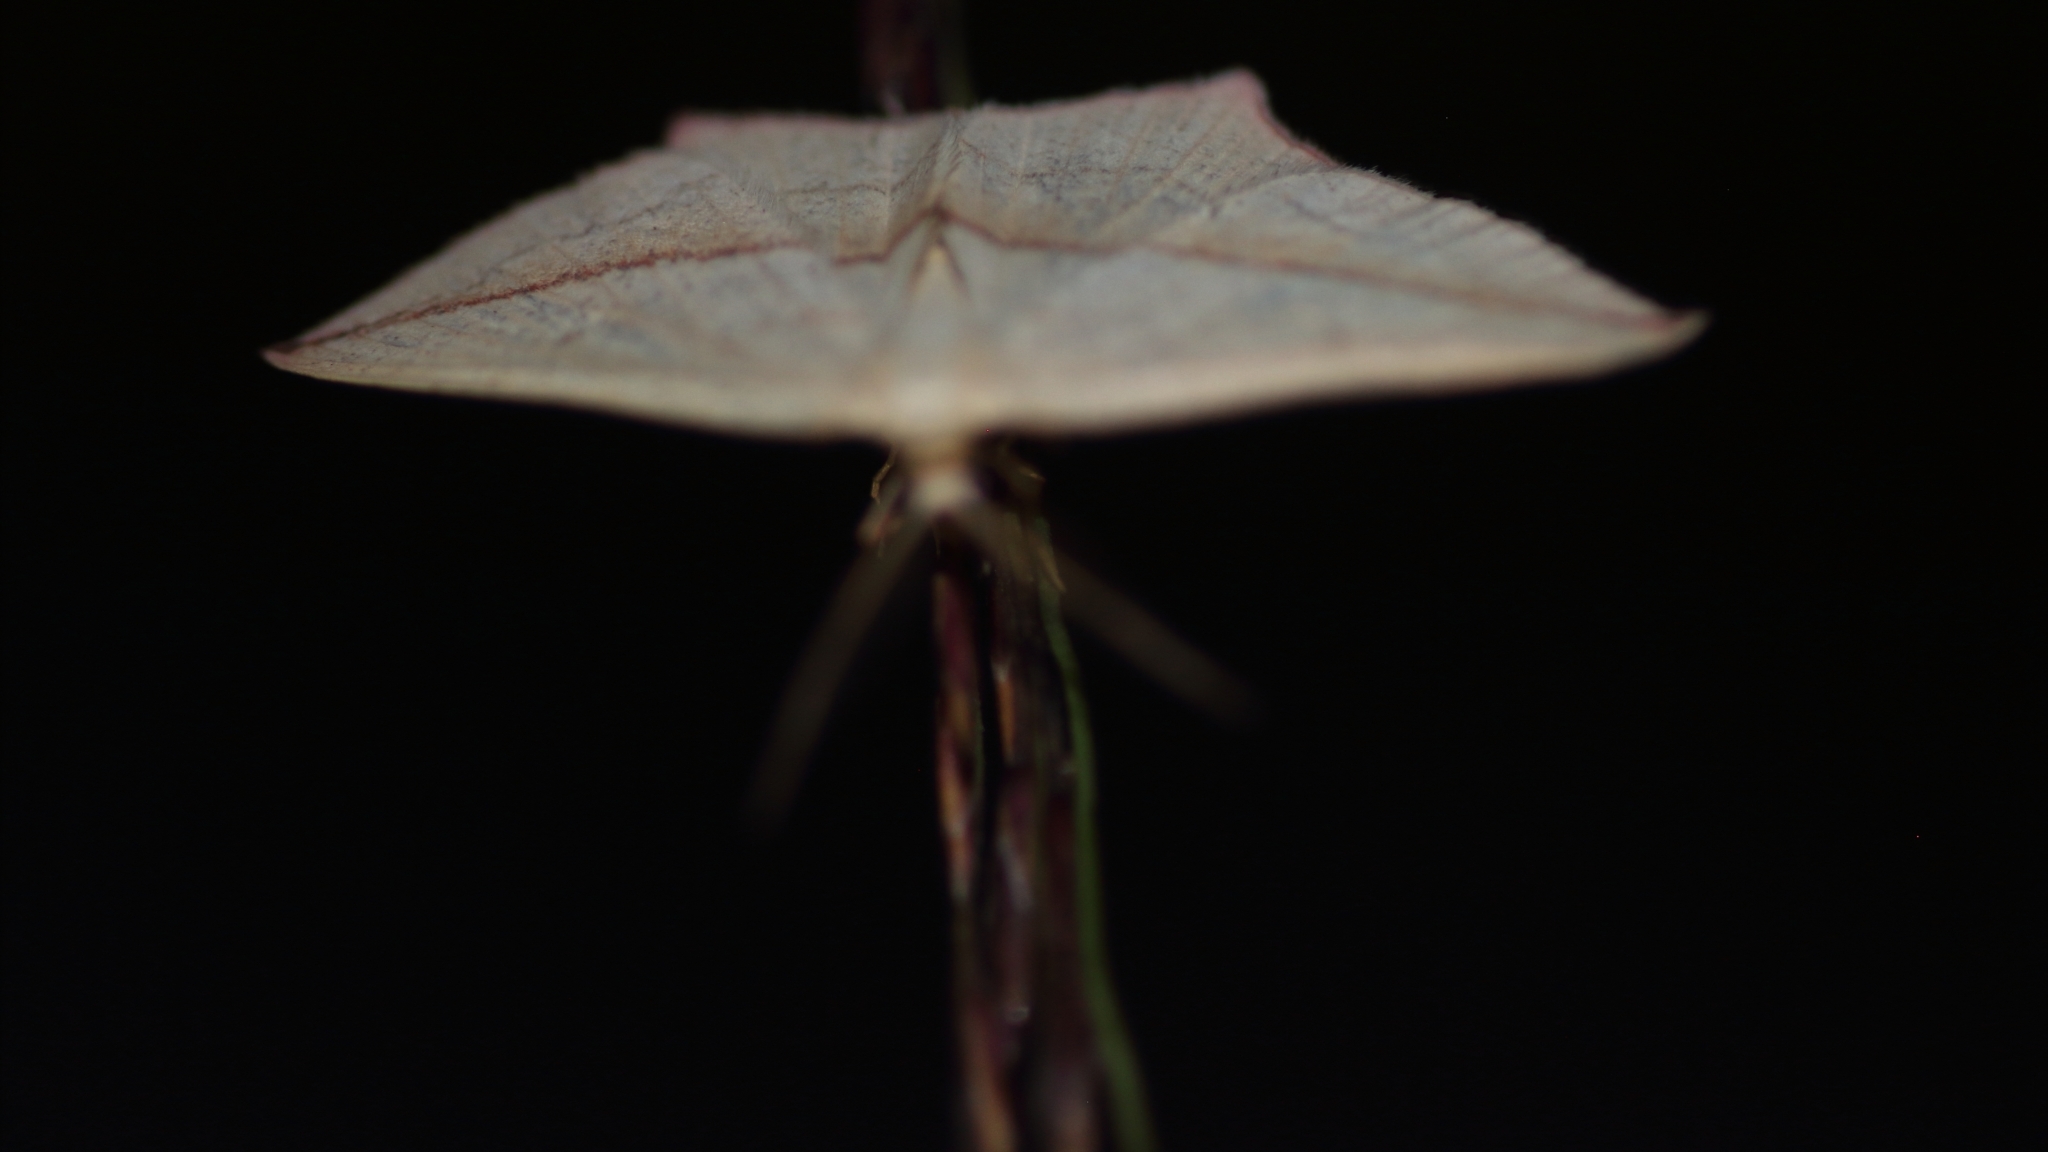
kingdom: Animalia
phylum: Arthropoda
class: Insecta
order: Lepidoptera
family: Geometridae
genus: Timandra
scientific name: Timandra comae
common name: Blood-vein
